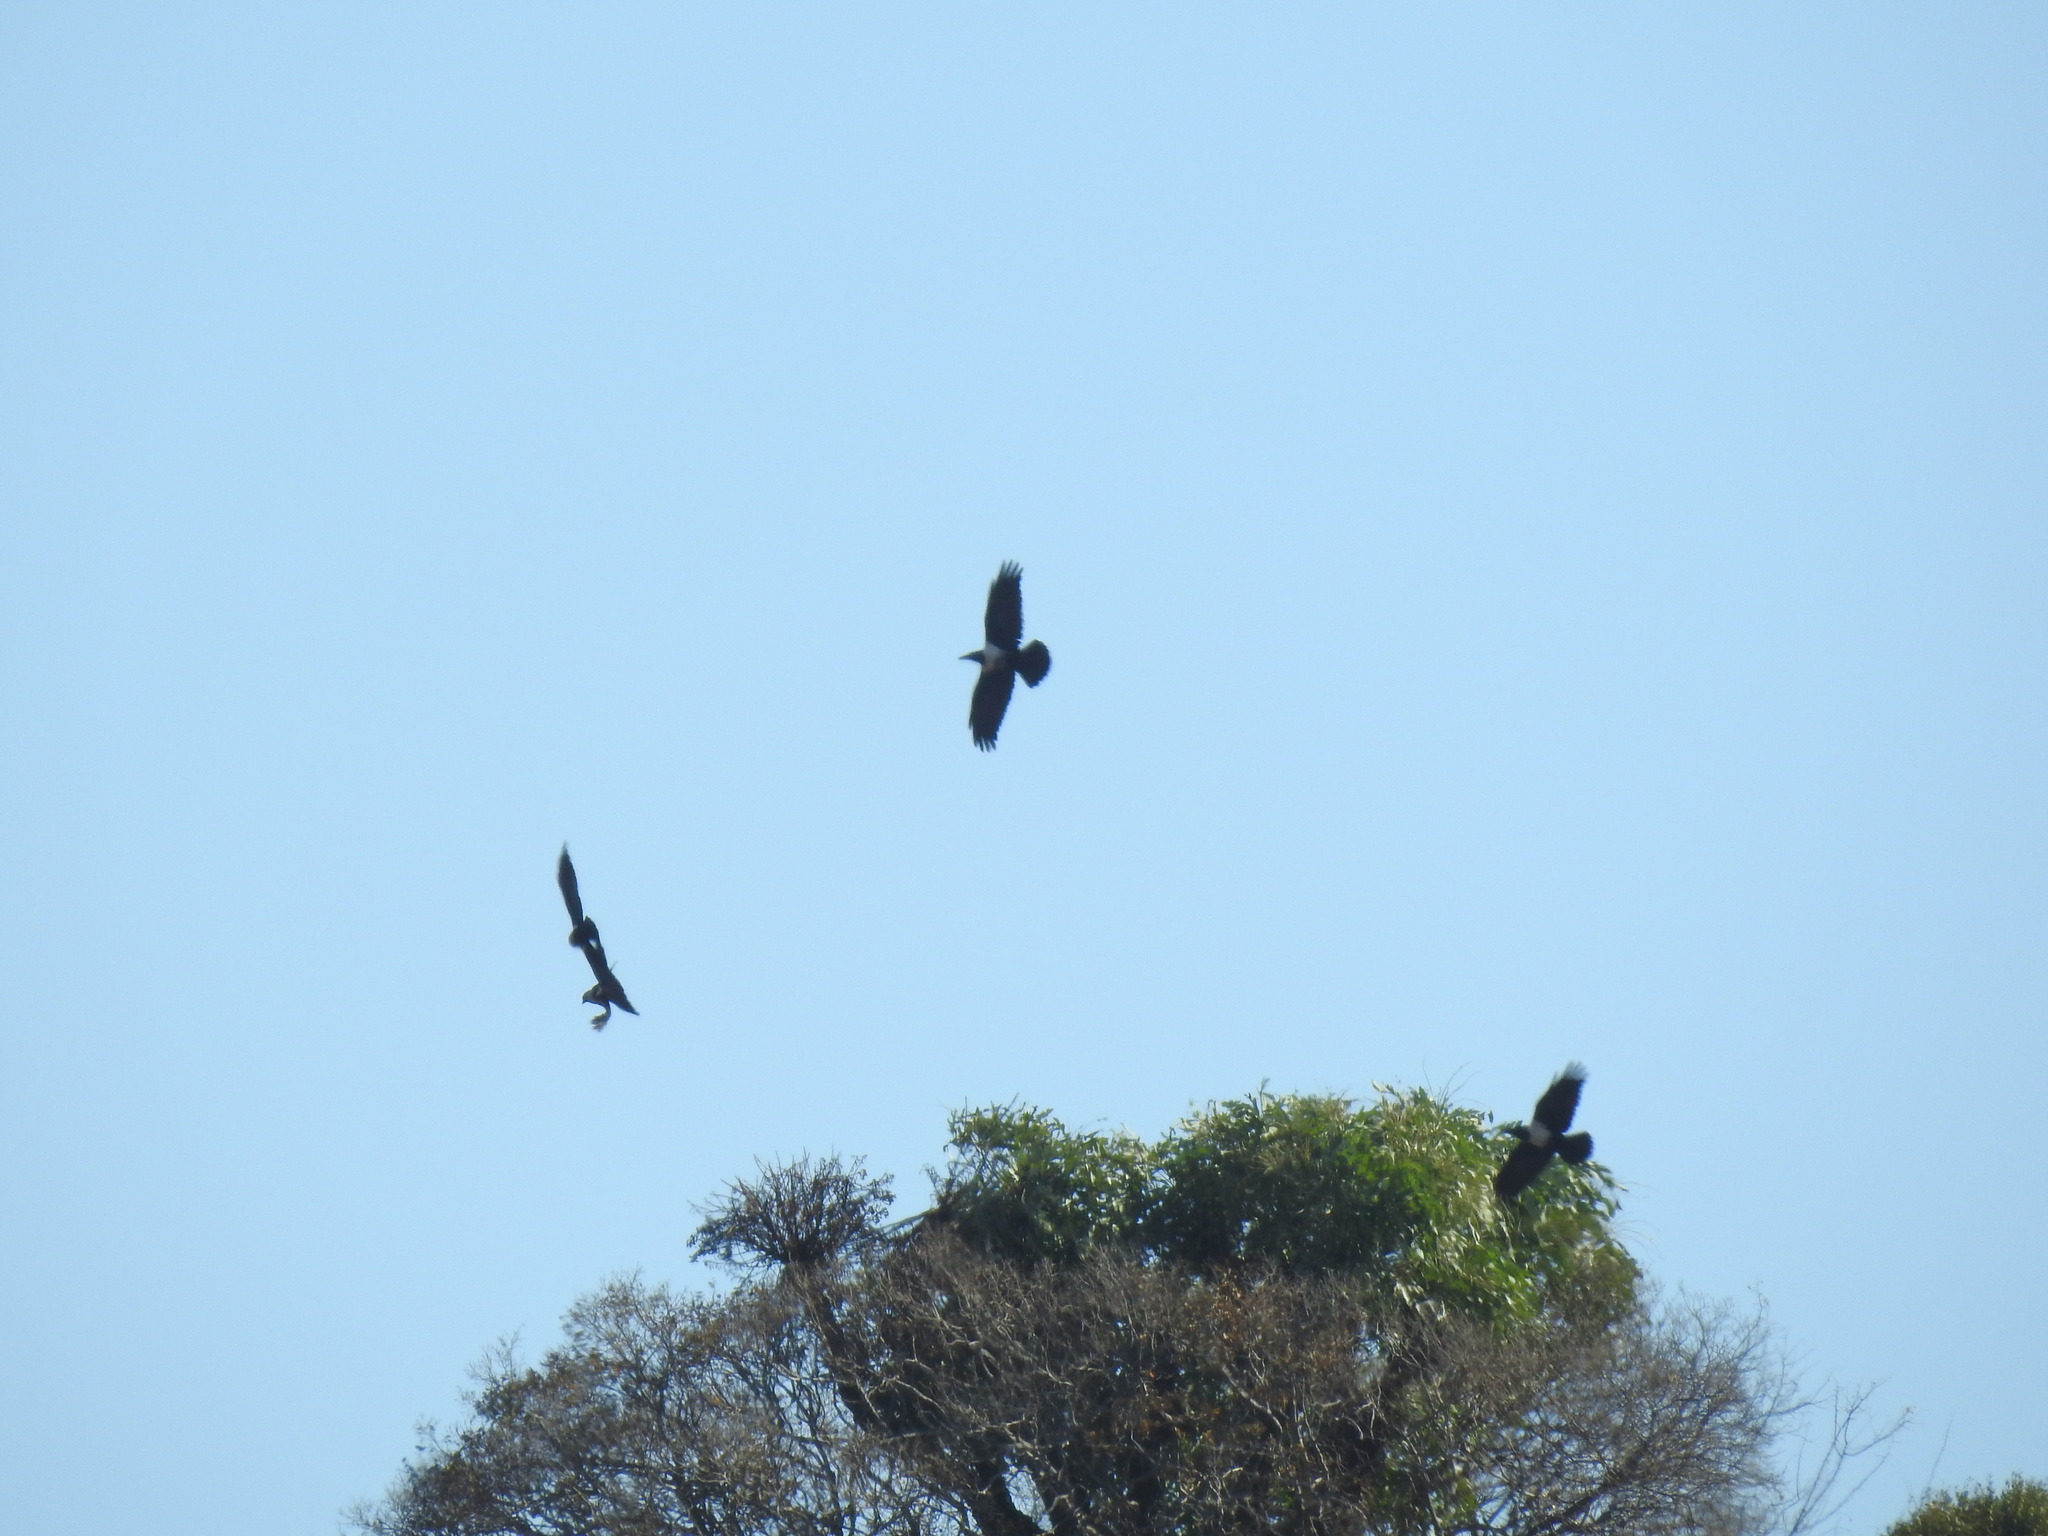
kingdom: Animalia
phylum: Chordata
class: Aves
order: Passeriformes
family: Corvidae
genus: Corvus
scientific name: Corvus albus
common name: Pied crow
